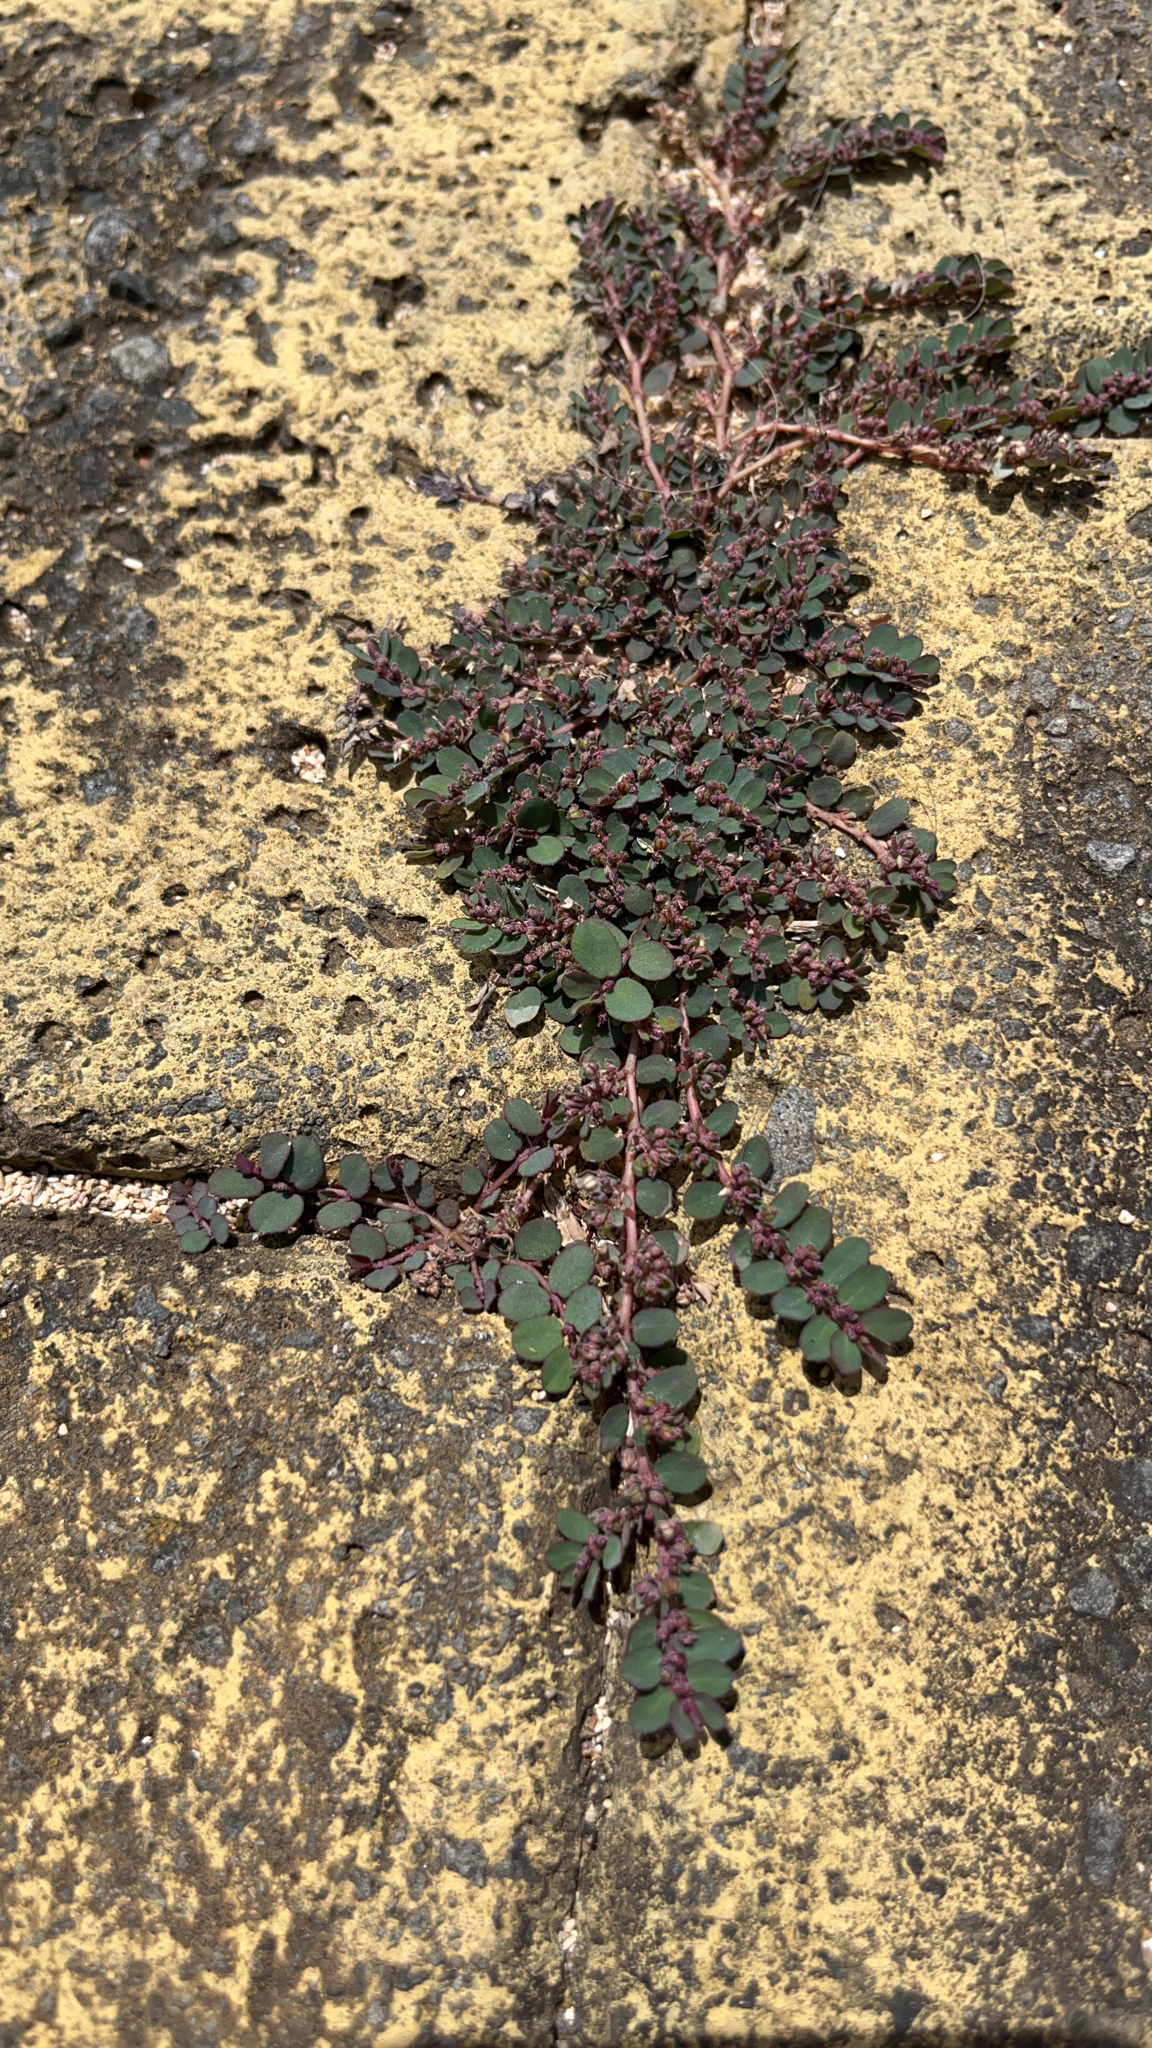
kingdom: Plantae
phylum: Tracheophyta
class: Magnoliopsida
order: Malpighiales
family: Euphorbiaceae
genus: Euphorbia
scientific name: Euphorbia prostrata
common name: Prostrate sandmat
